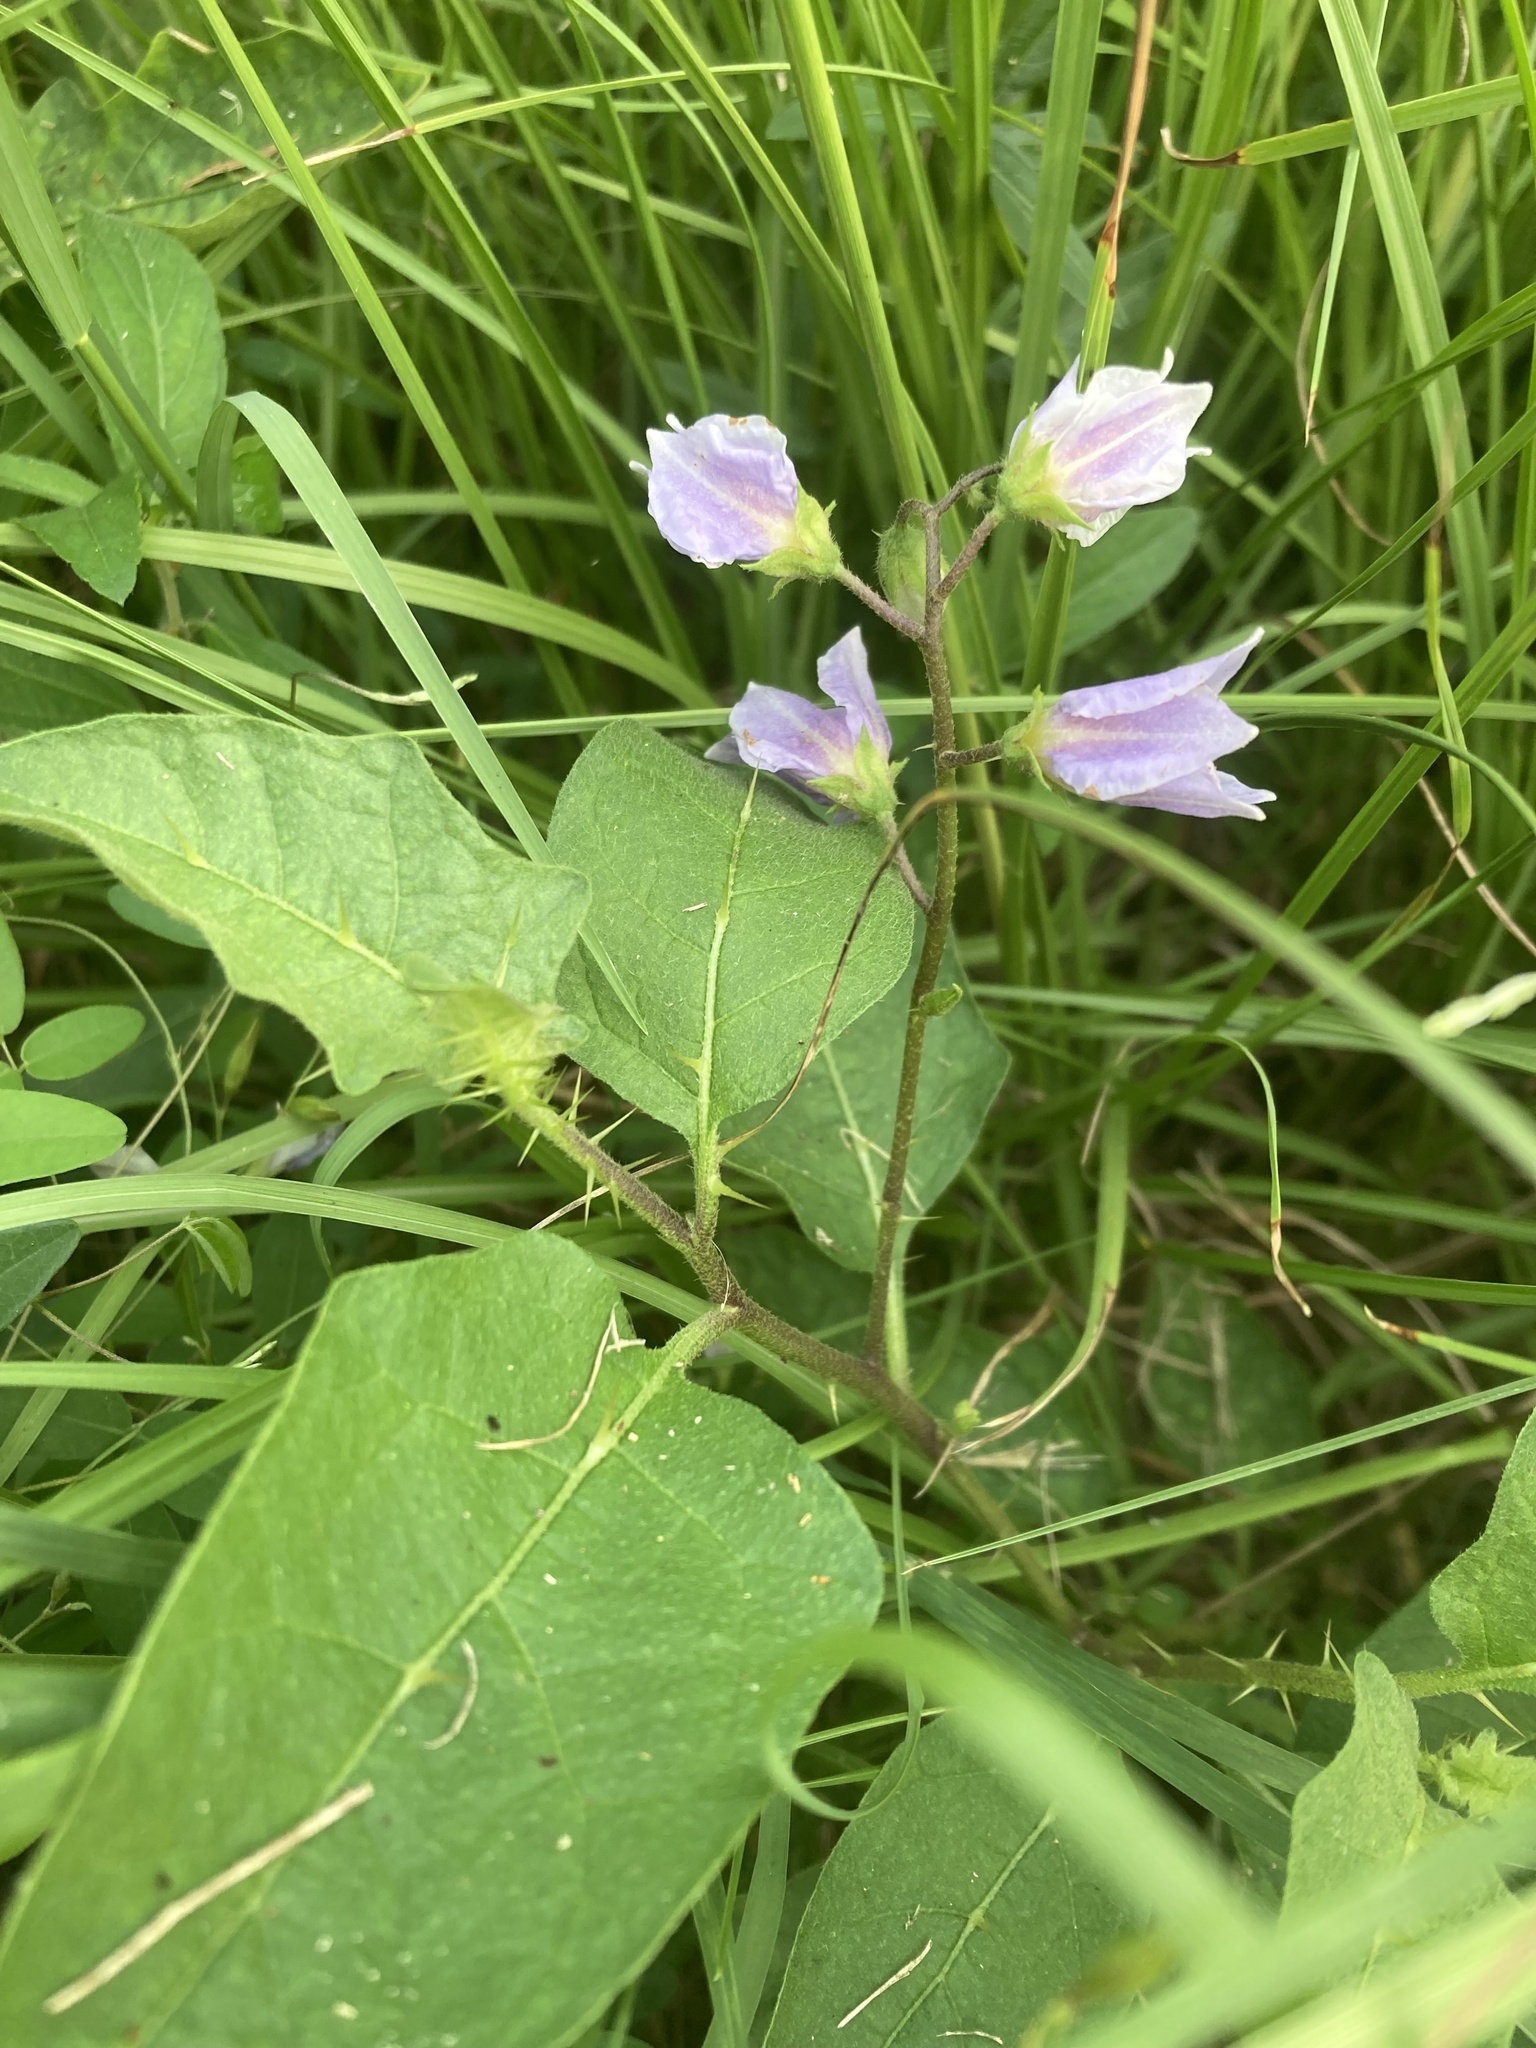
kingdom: Plantae
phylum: Tracheophyta
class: Magnoliopsida
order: Solanales
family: Solanaceae
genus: Solanum
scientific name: Solanum carolinense
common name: Horse-nettle
